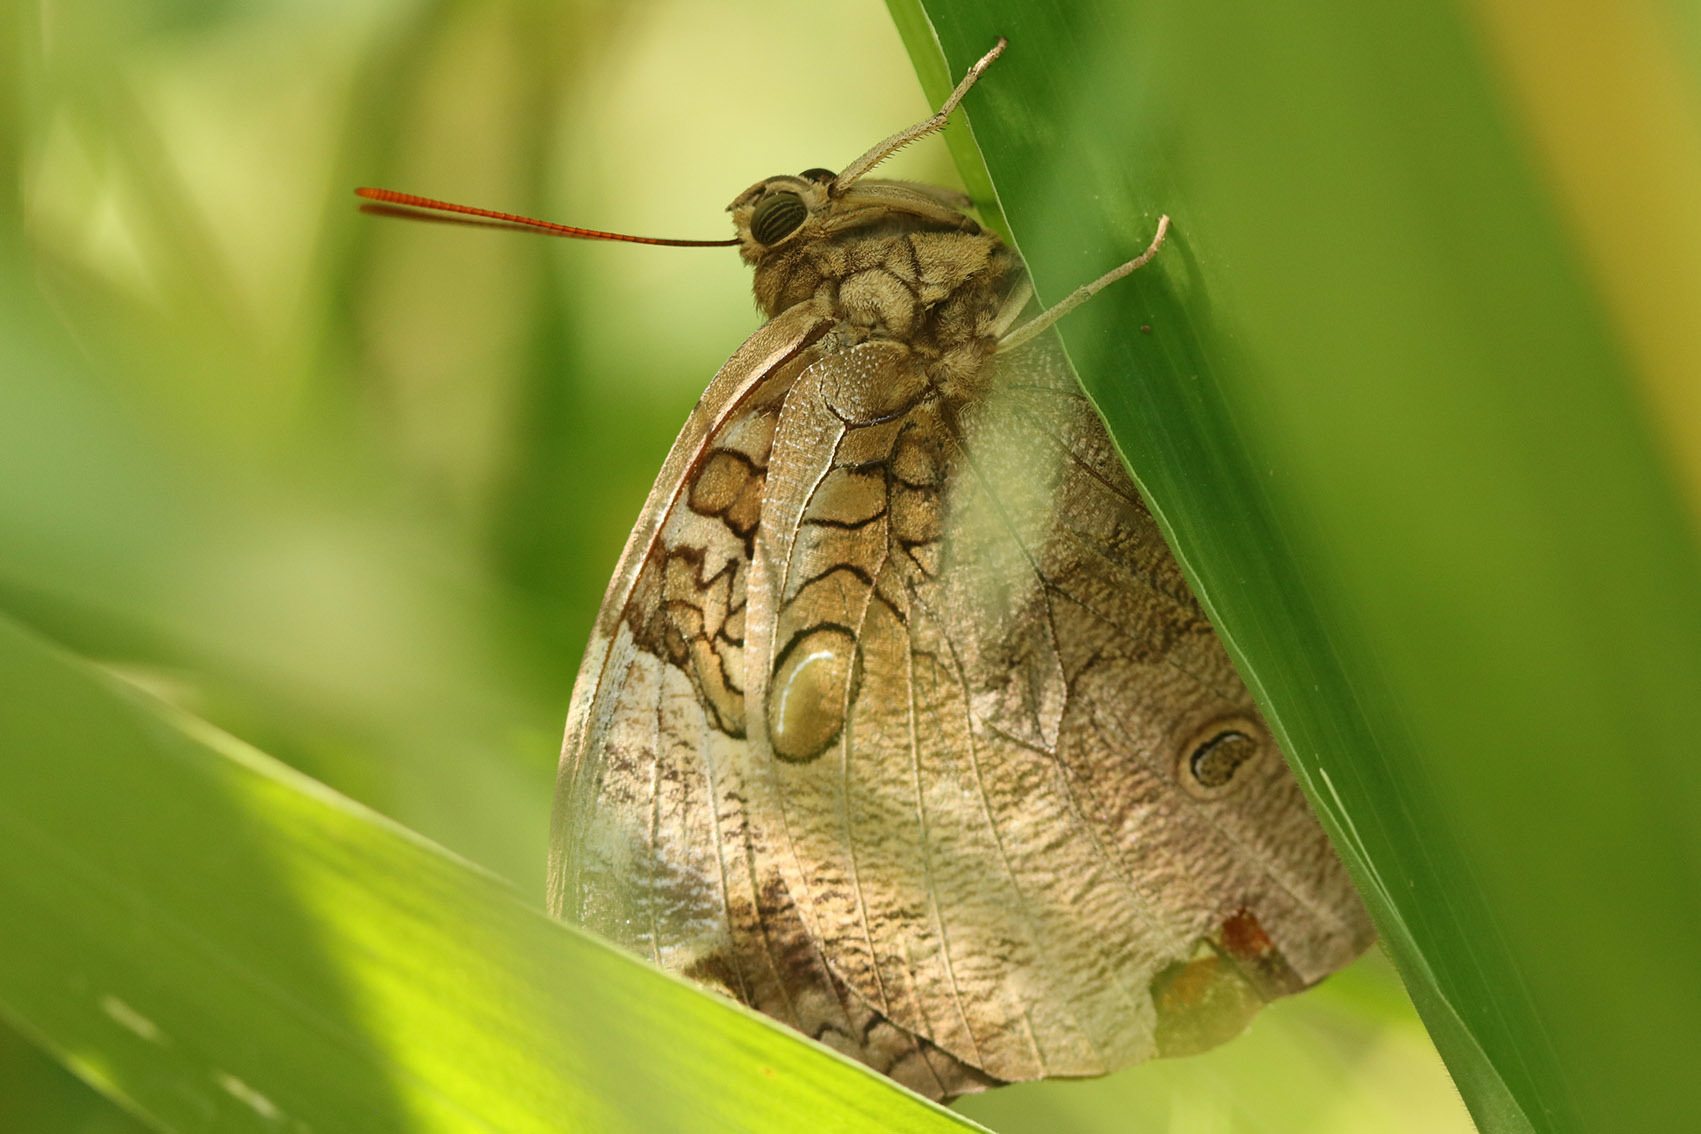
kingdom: Animalia
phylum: Arthropoda
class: Insecta
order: Lepidoptera
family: Nymphalidae
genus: Opsiphanes
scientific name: Opsiphanes invirae
